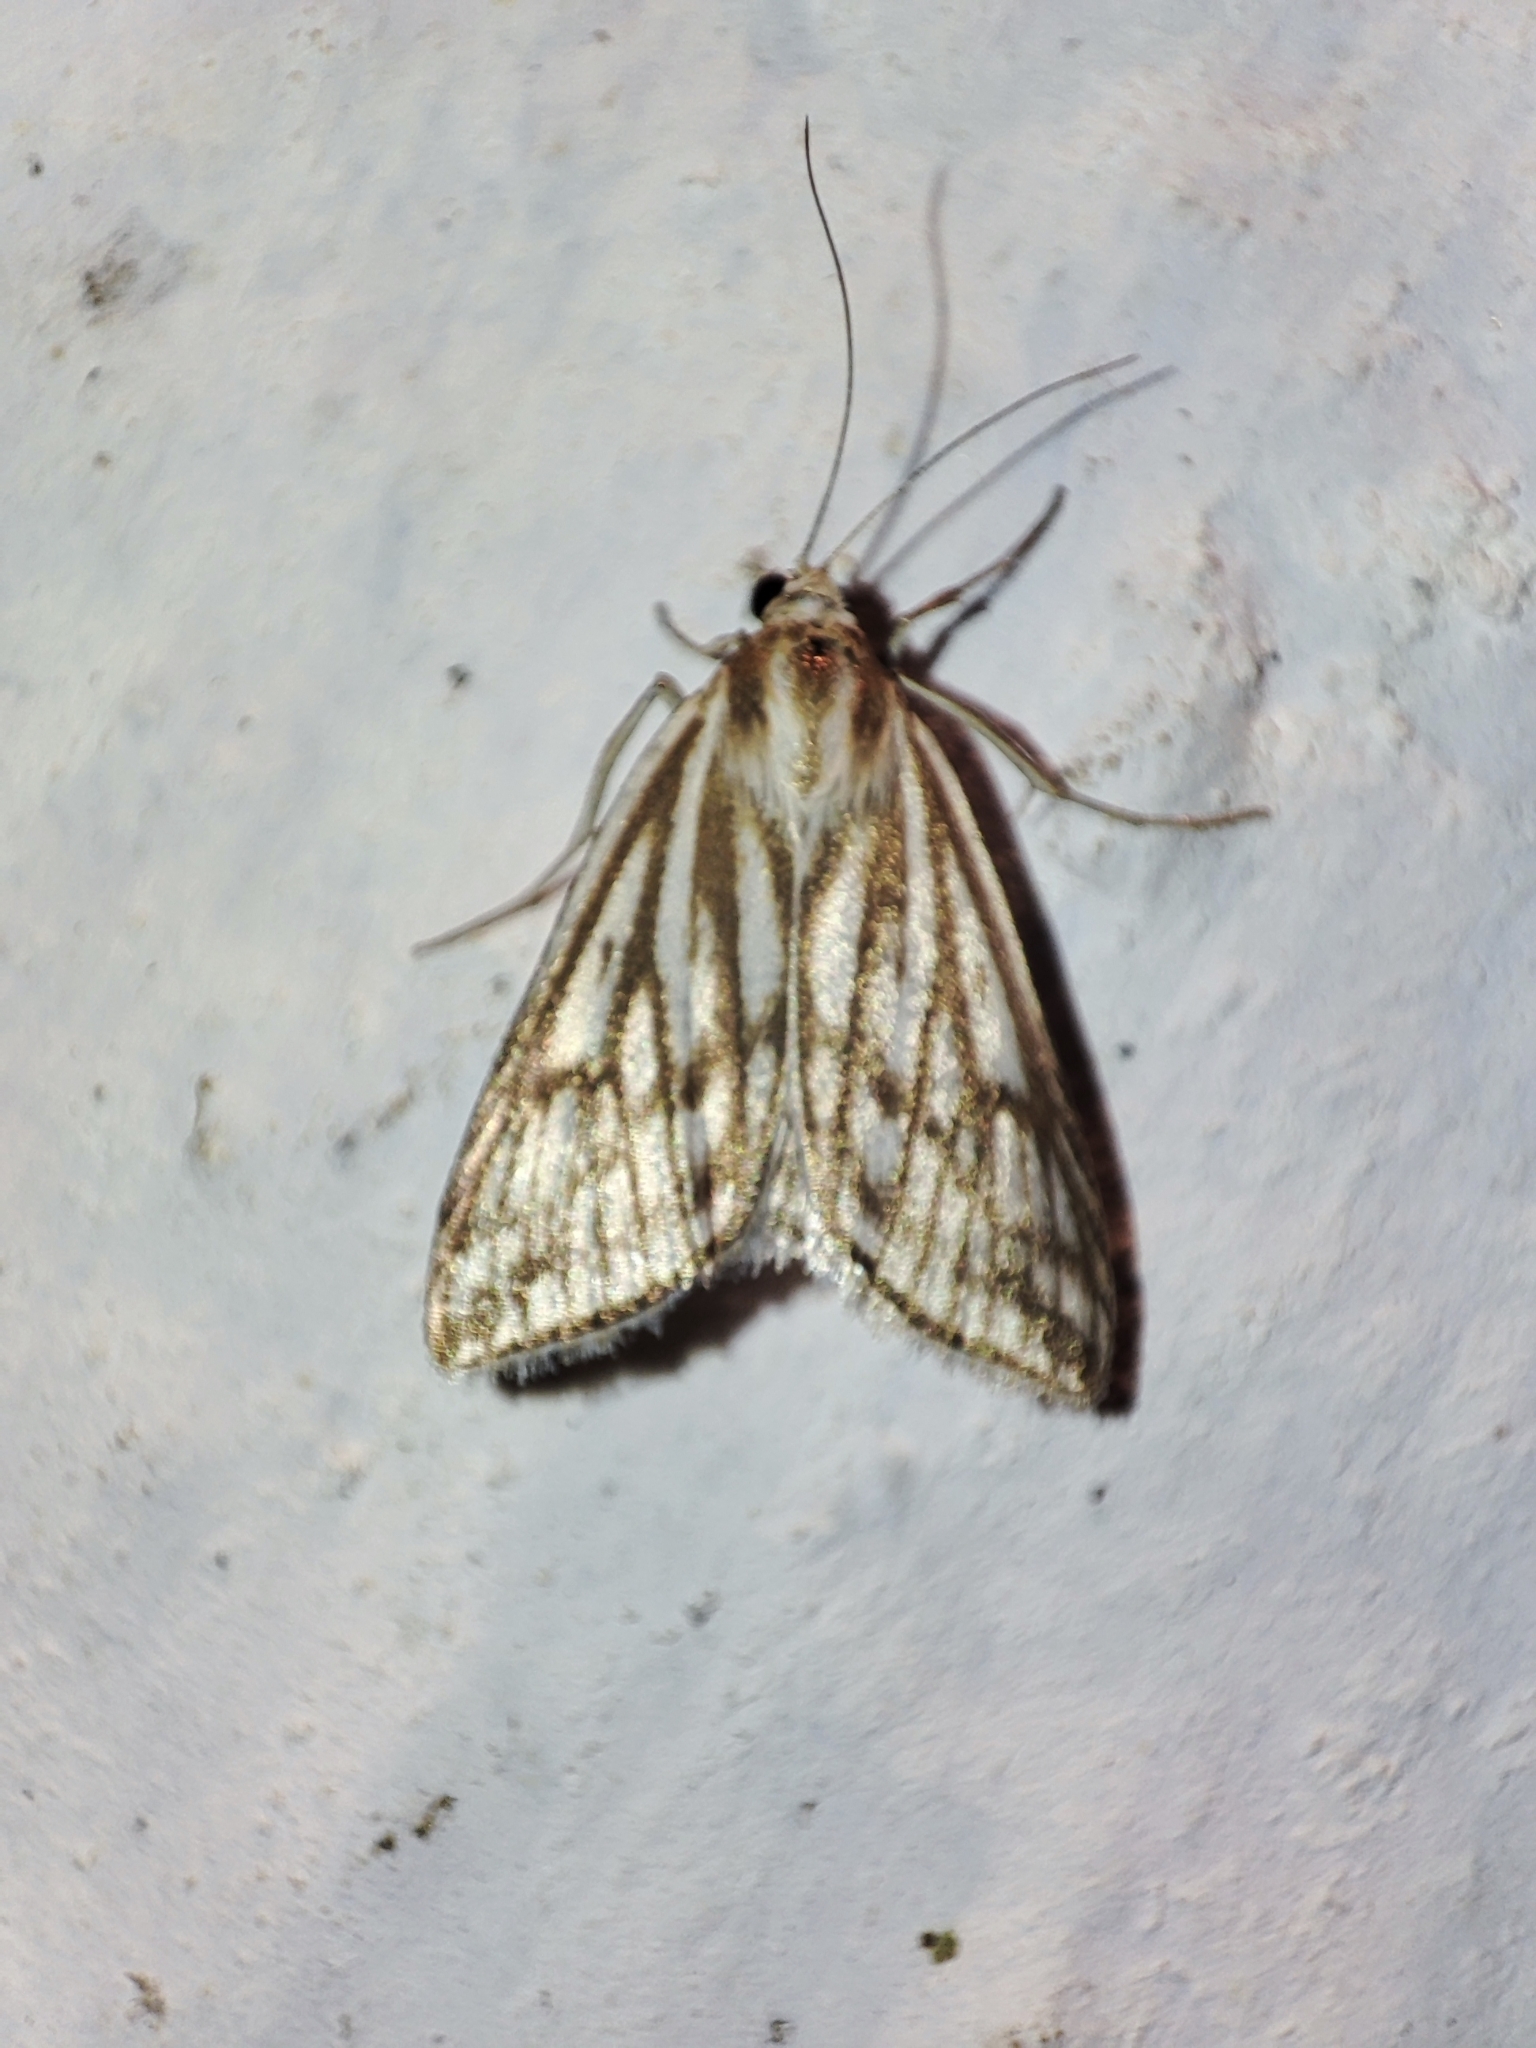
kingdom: Animalia
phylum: Arthropoda
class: Insecta
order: Lepidoptera
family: Crambidae
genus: Loxostege
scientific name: Loxostege clathralis
